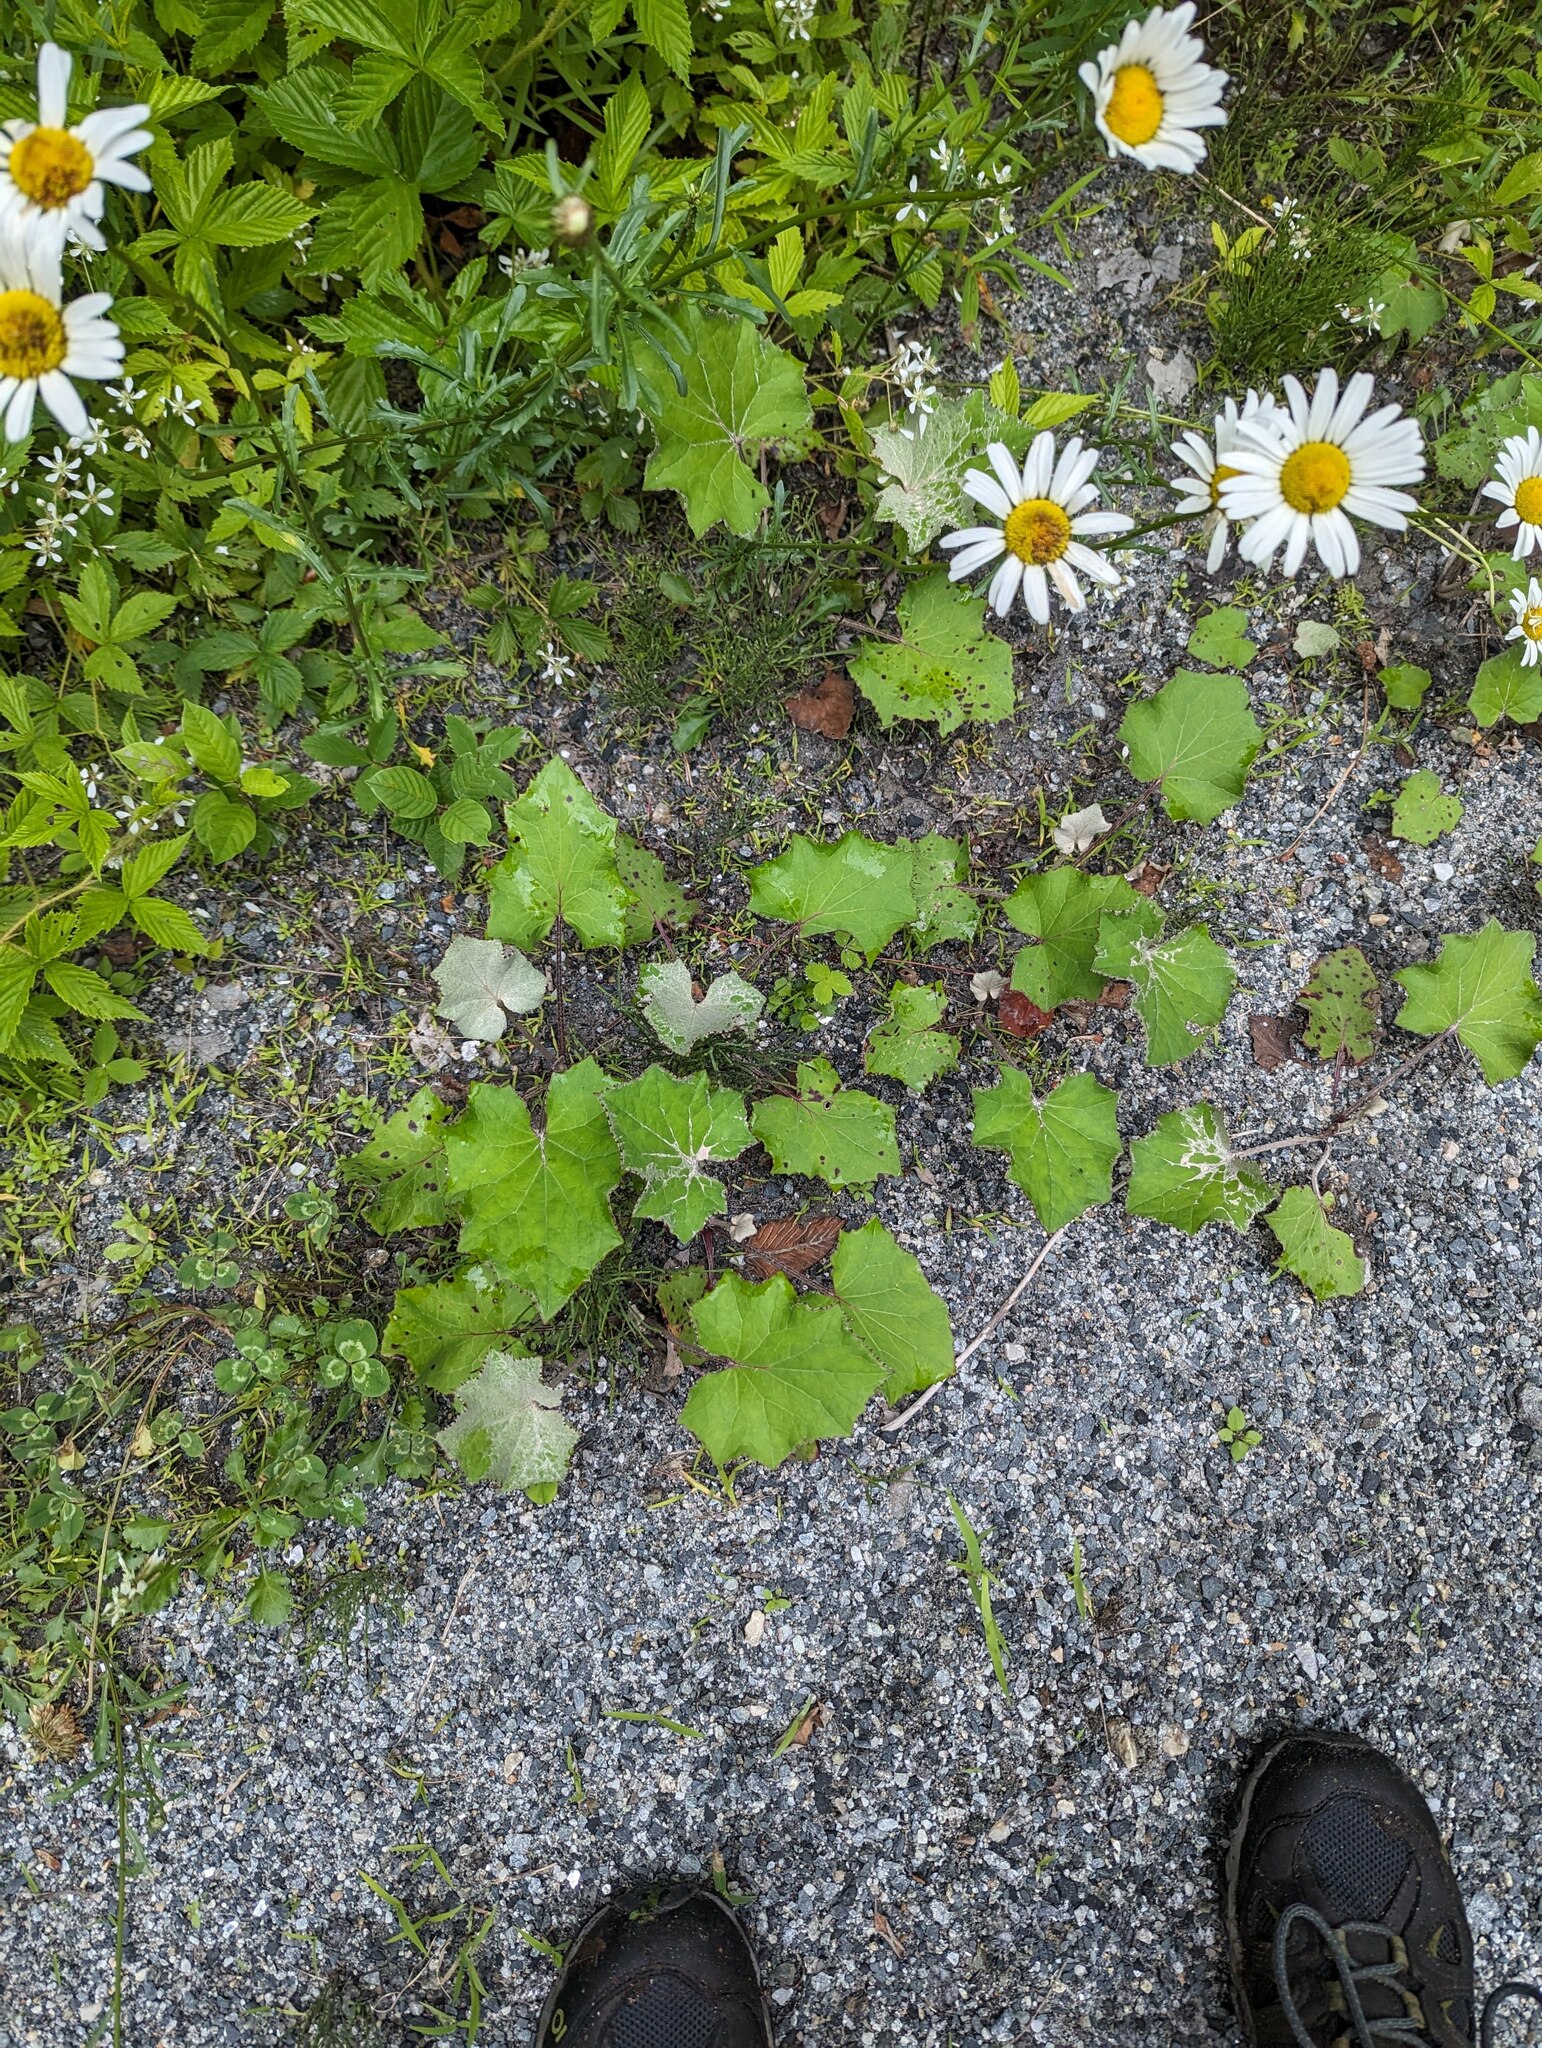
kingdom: Plantae
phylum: Tracheophyta
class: Magnoliopsida
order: Asterales
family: Asteraceae
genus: Tussilago
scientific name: Tussilago farfara
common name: Coltsfoot
